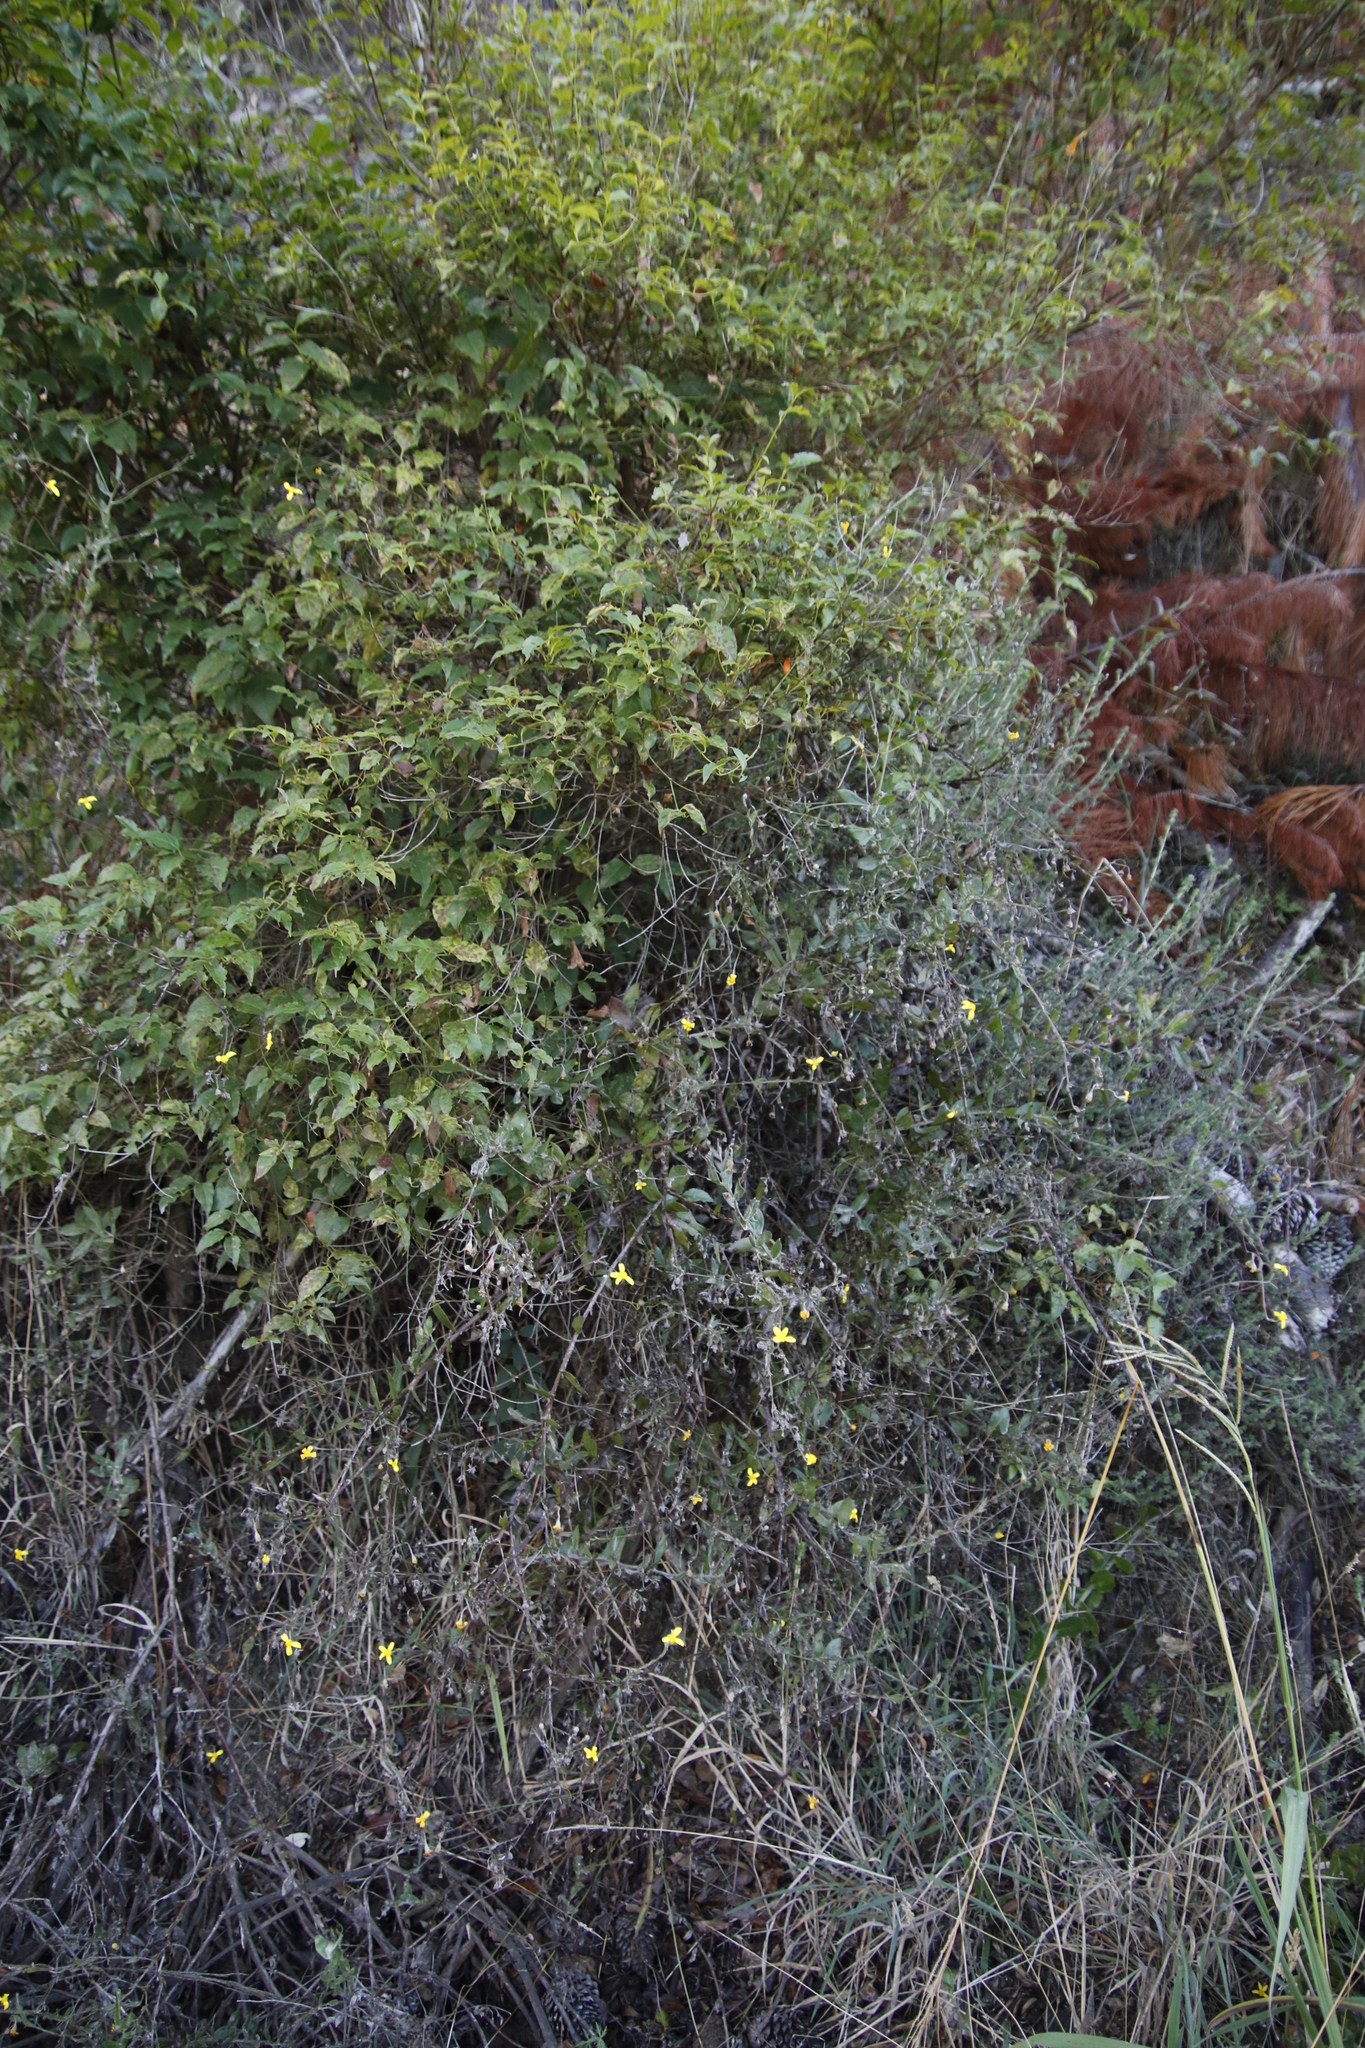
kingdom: Plantae
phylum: Tracheophyta
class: Magnoliopsida
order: Lamiales
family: Stilbaceae
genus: Halleria
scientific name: Halleria lucida
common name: Tree fuschia
